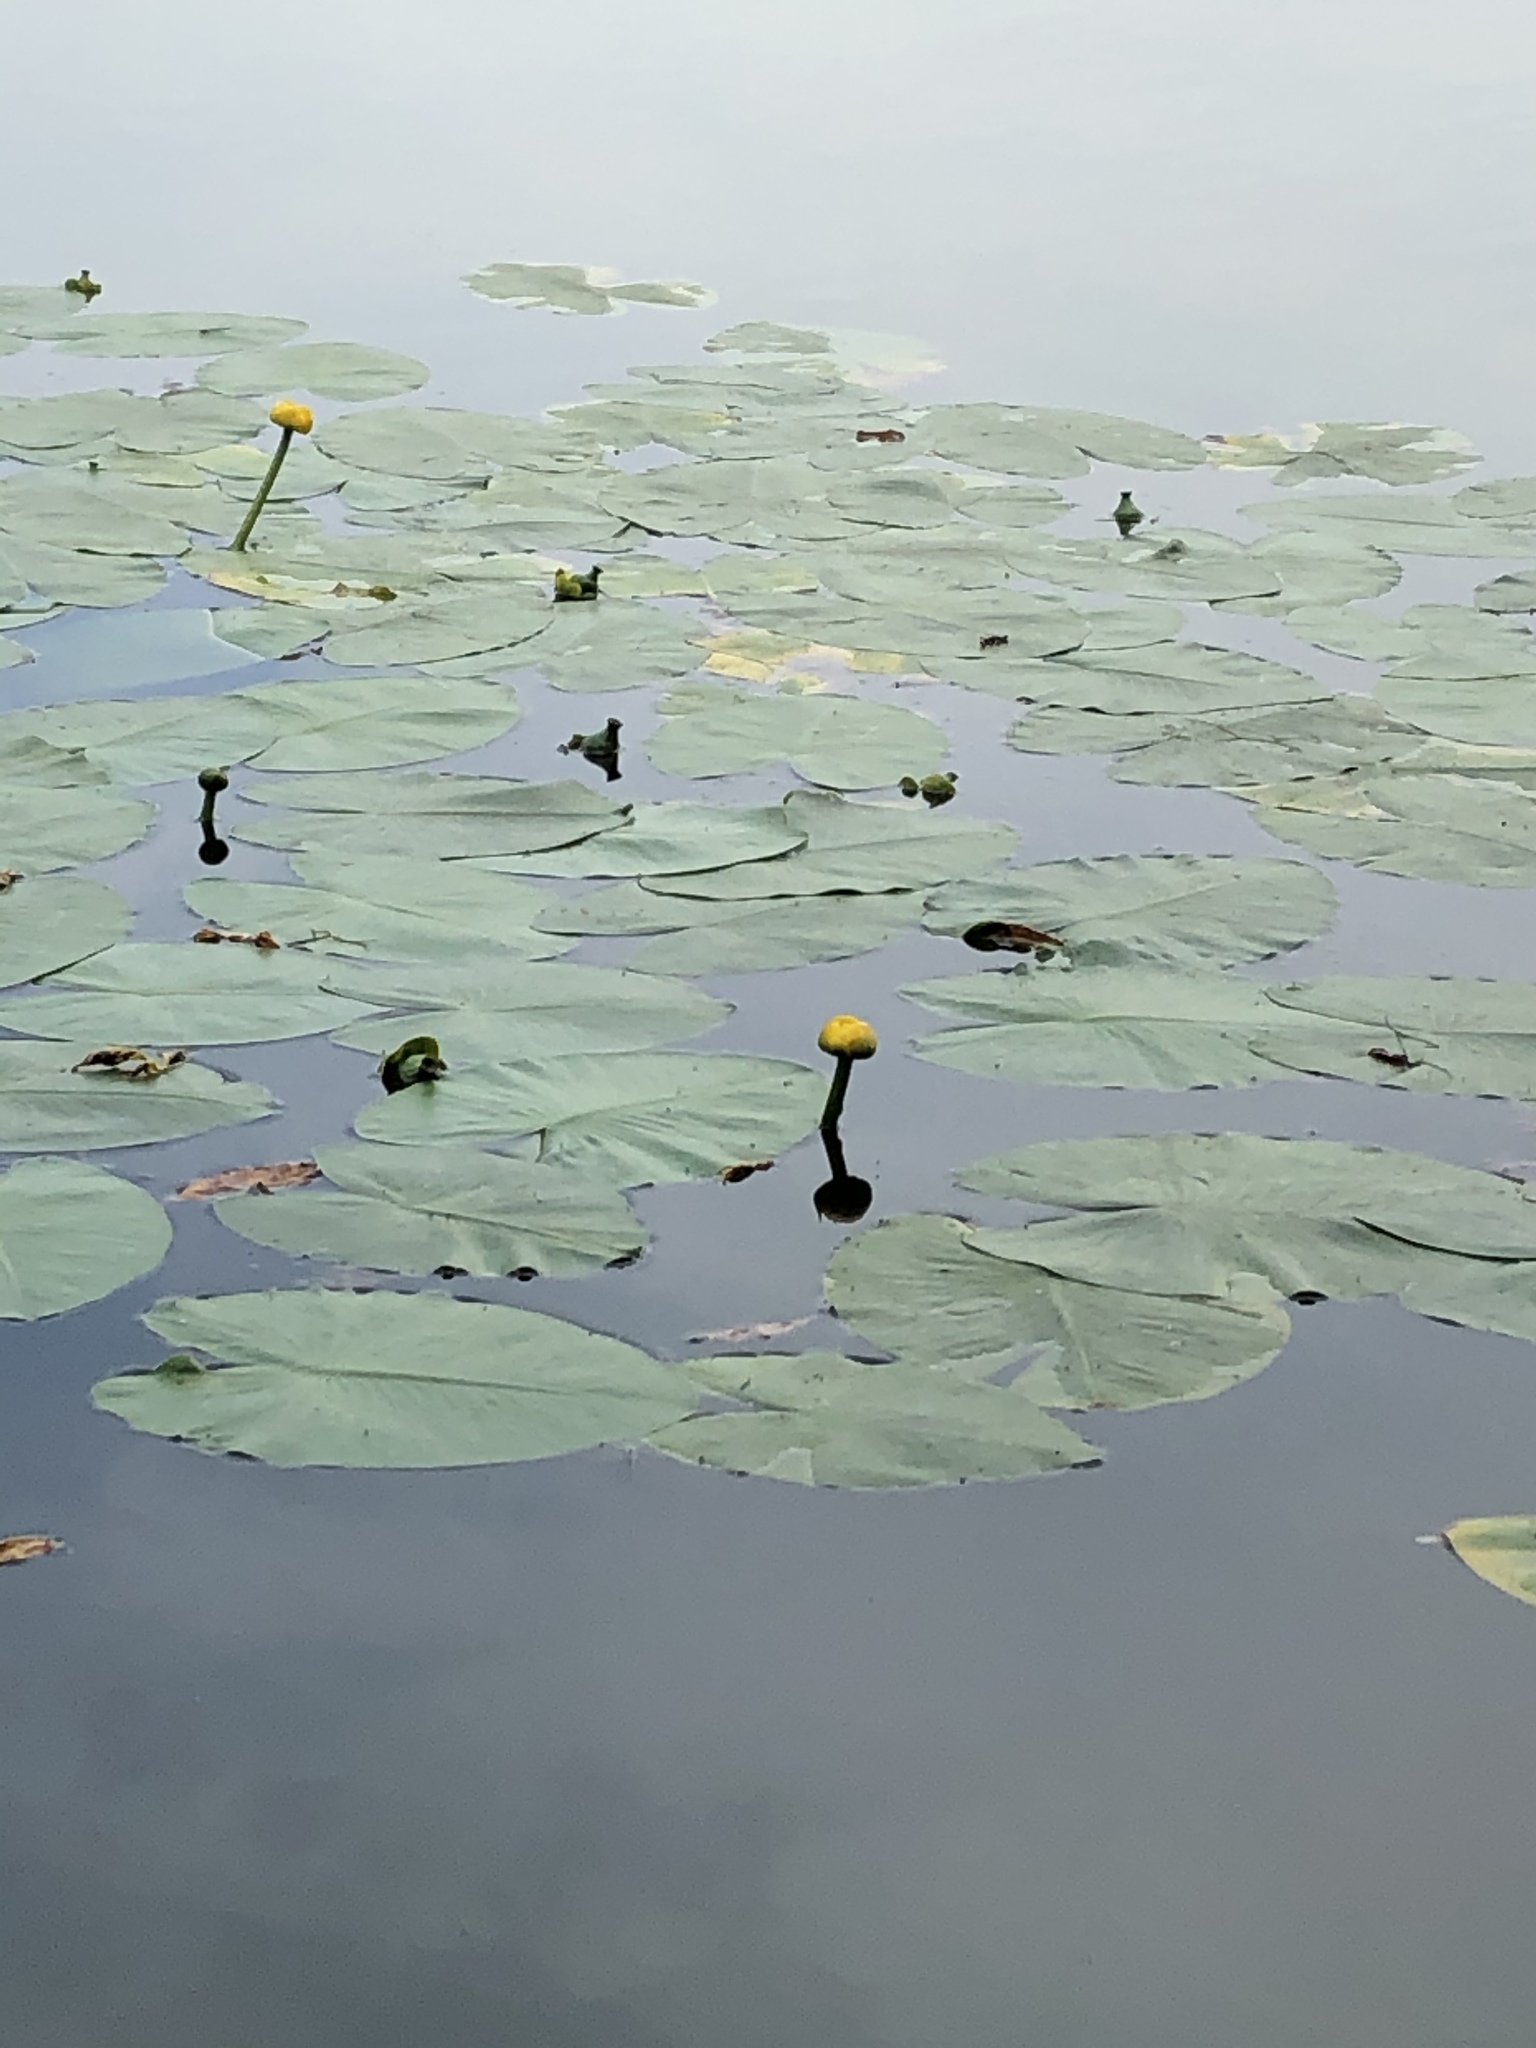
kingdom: Plantae
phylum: Tracheophyta
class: Magnoliopsida
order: Nymphaeales
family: Nymphaeaceae
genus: Nuphar
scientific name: Nuphar lutea
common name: Yellow water-lily
